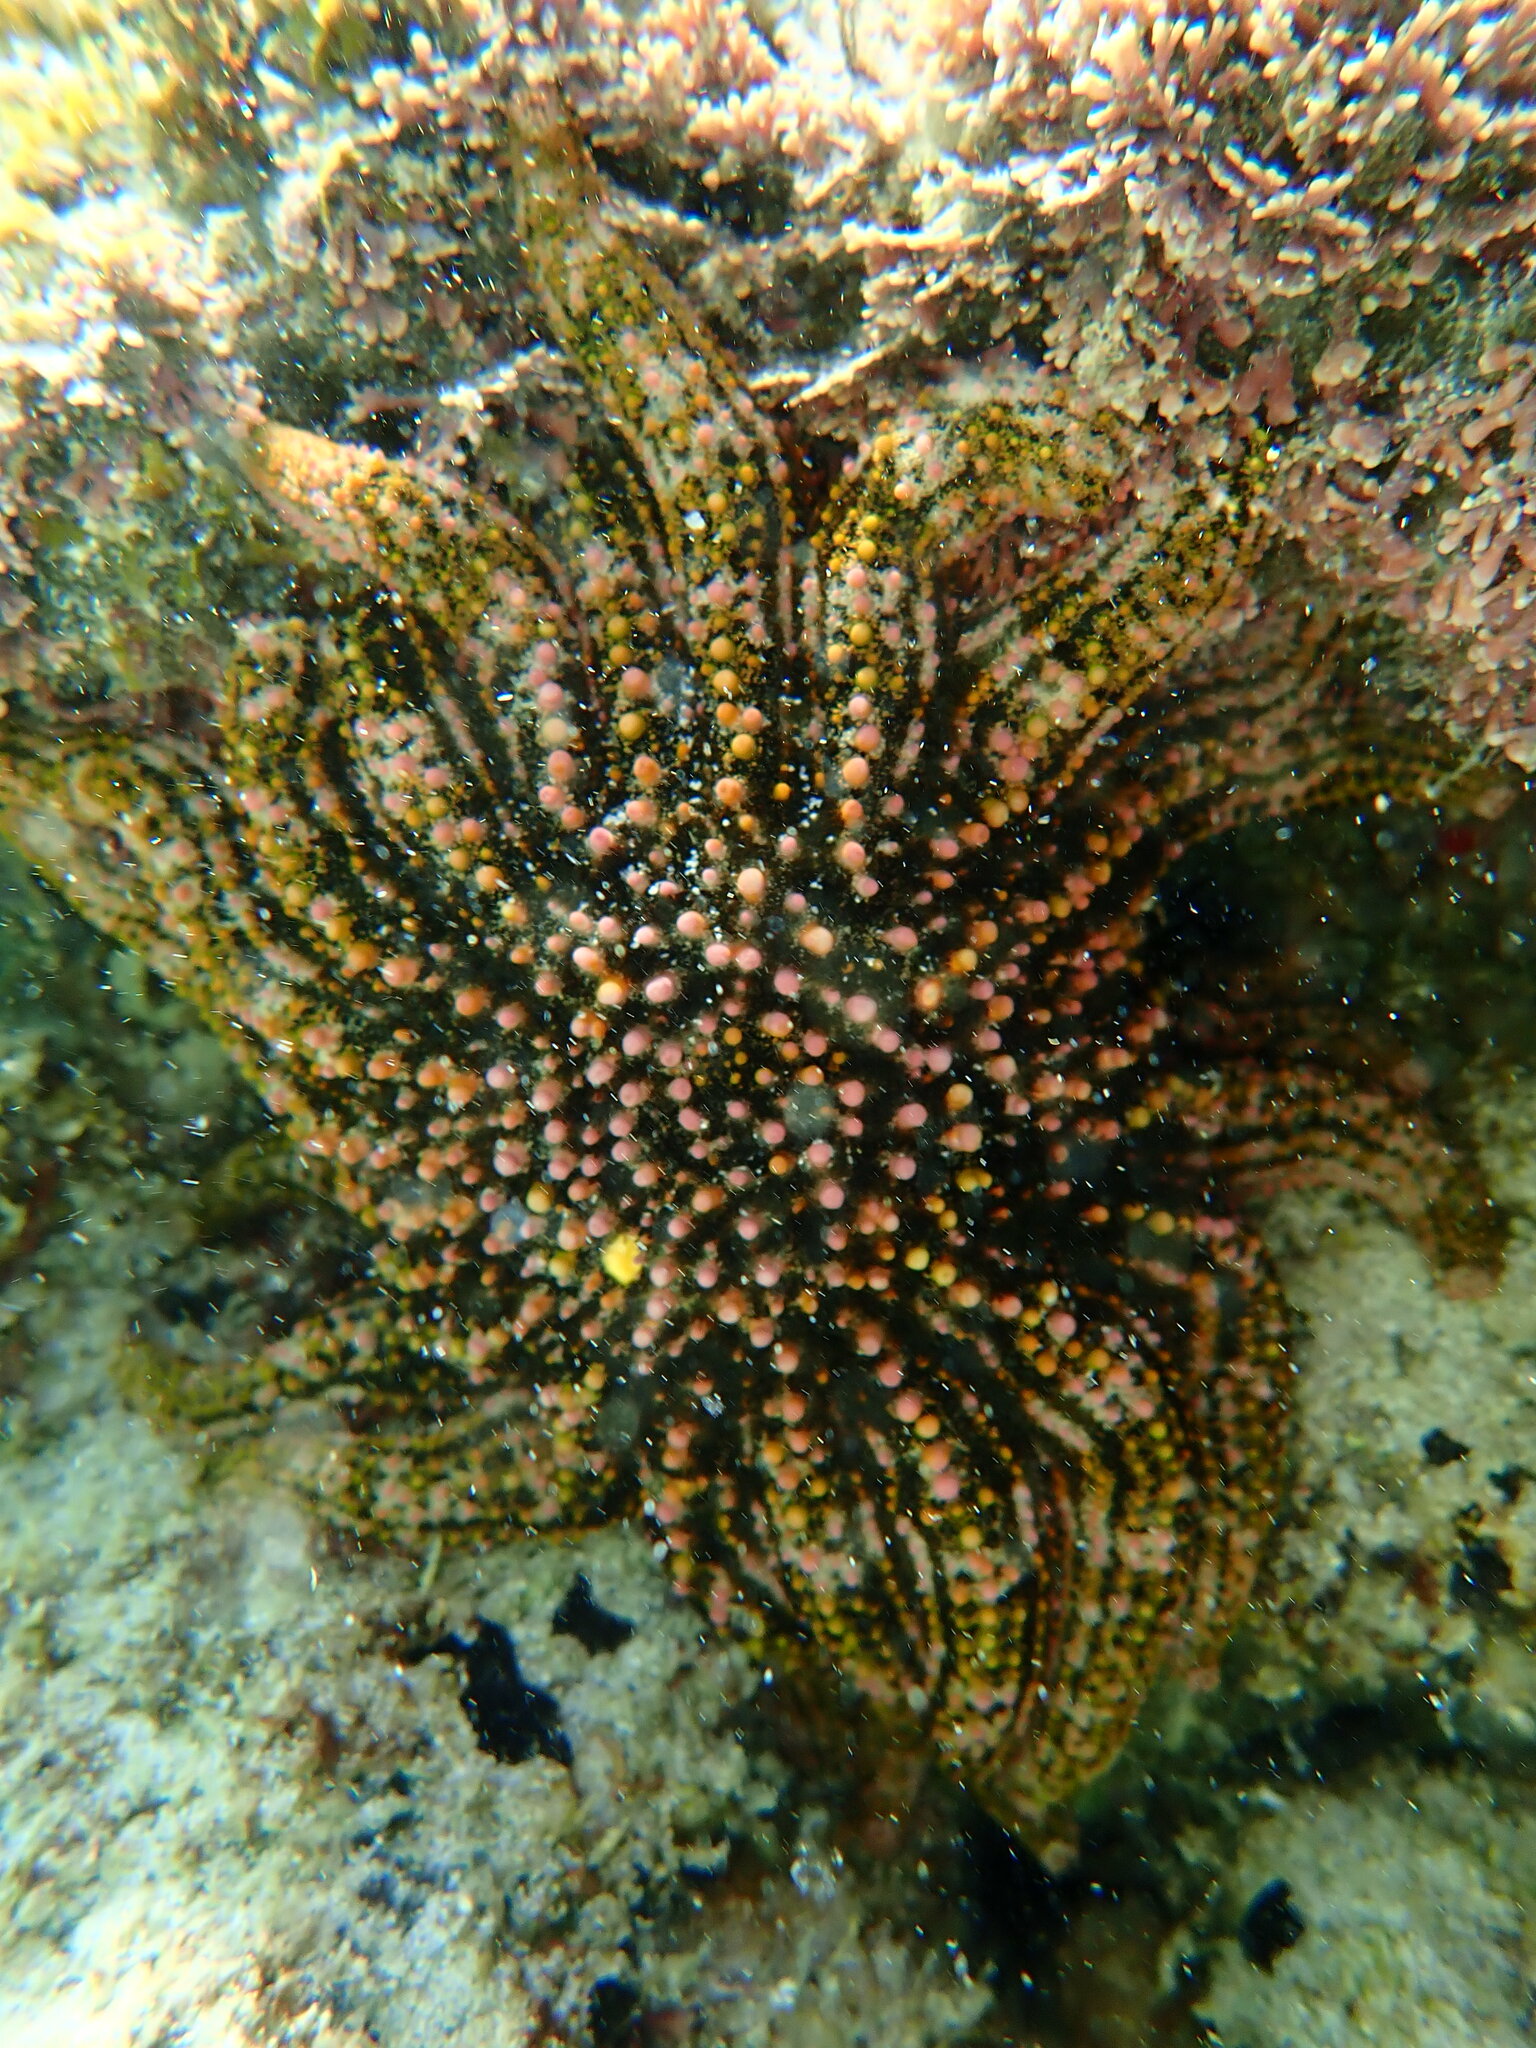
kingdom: Animalia
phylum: Echinodermata
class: Asteroidea
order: Forcipulatida
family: Heliasteridae
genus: Heliaster
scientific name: Heliaster kubiniji
